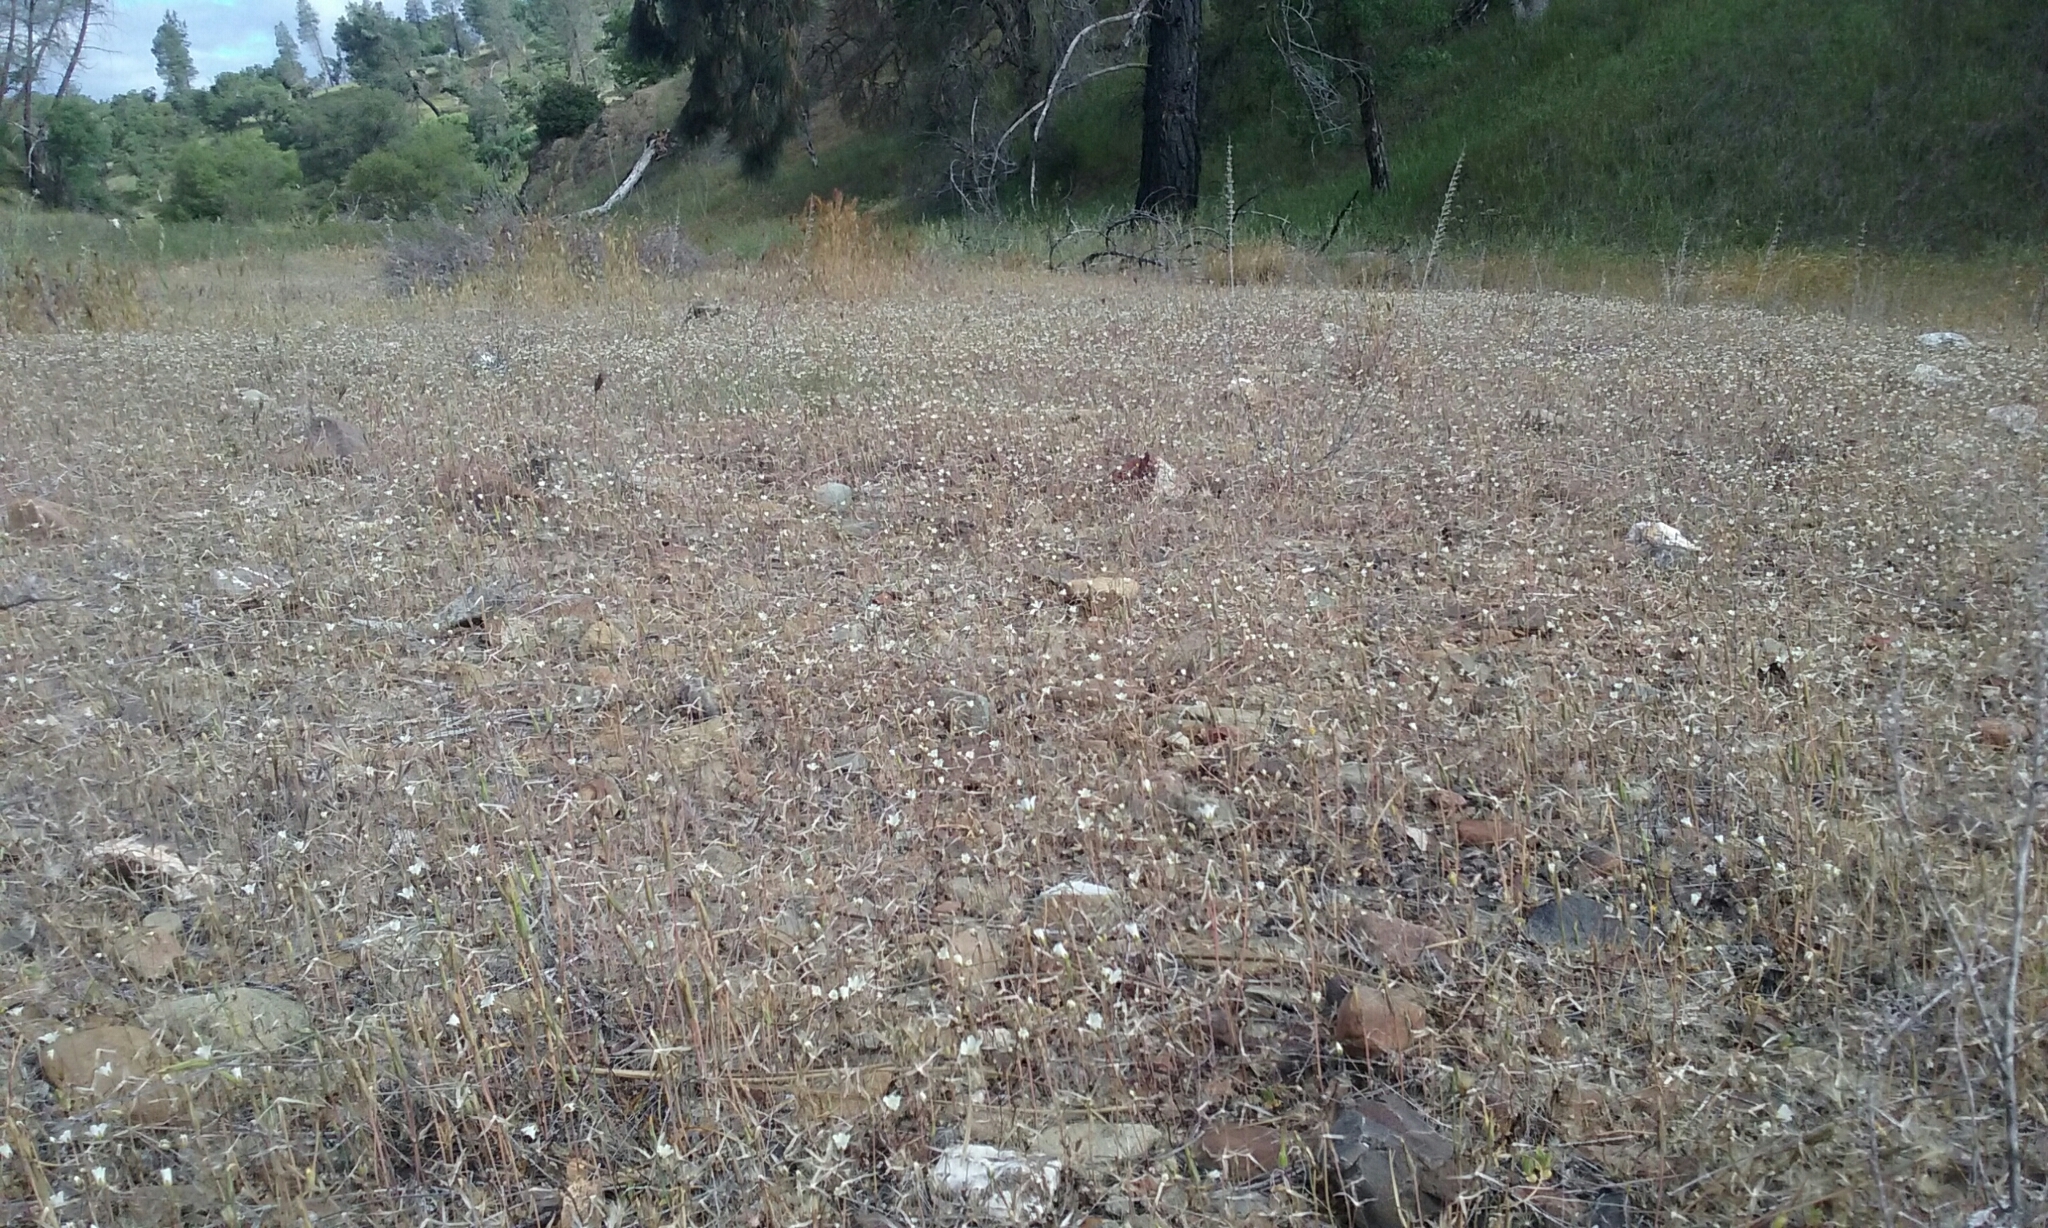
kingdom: Plantae
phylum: Tracheophyta
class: Magnoliopsida
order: Caryophyllales
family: Caryophyllaceae
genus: Sabulina
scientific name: Sabulina douglasii
